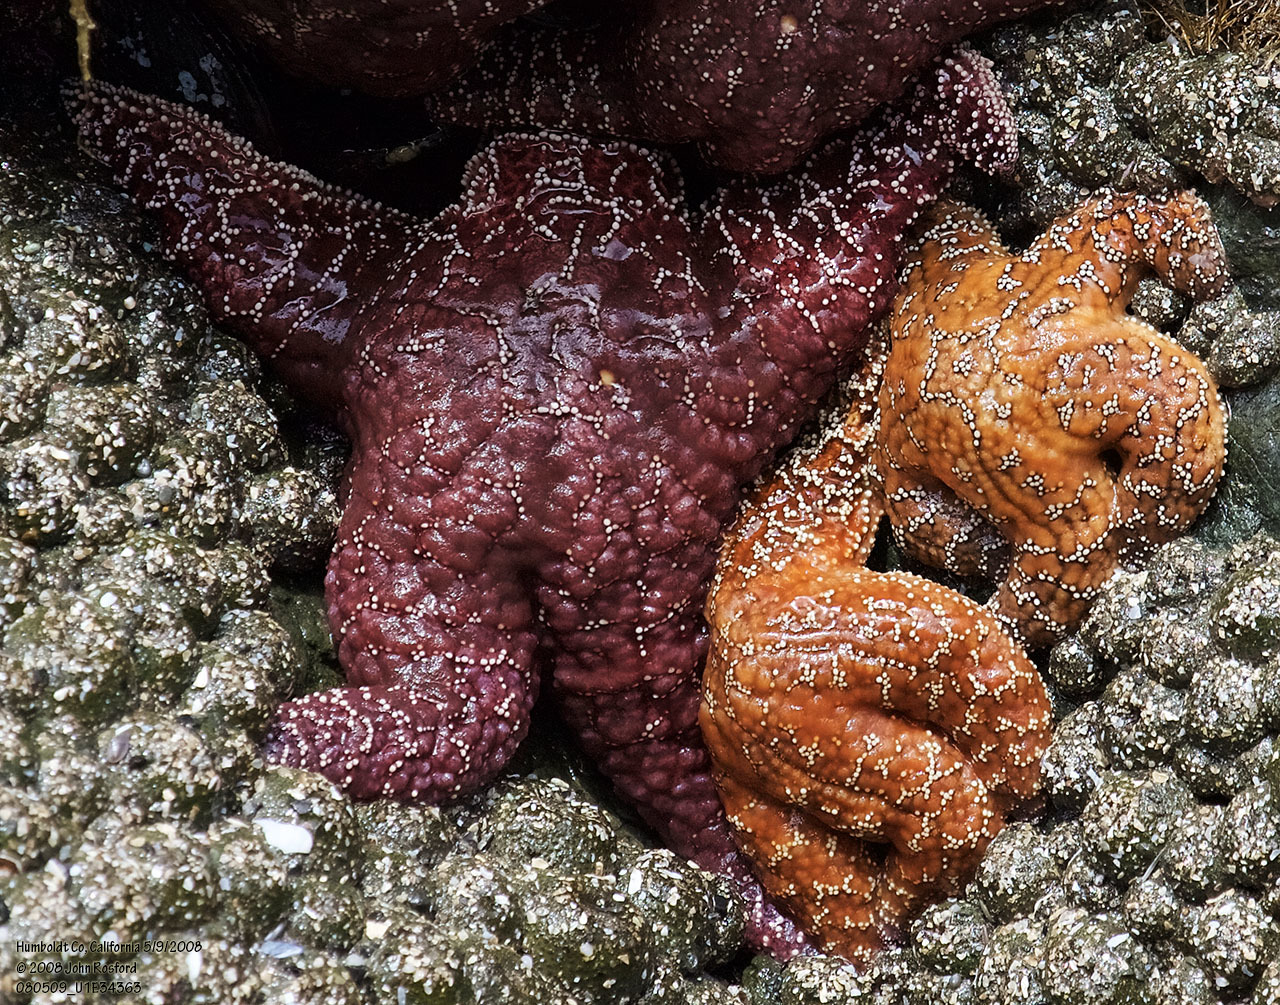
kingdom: Animalia
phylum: Echinodermata
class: Asteroidea
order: Forcipulatida
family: Asteriidae
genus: Pisaster
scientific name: Pisaster ochraceus
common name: Ochre stars
